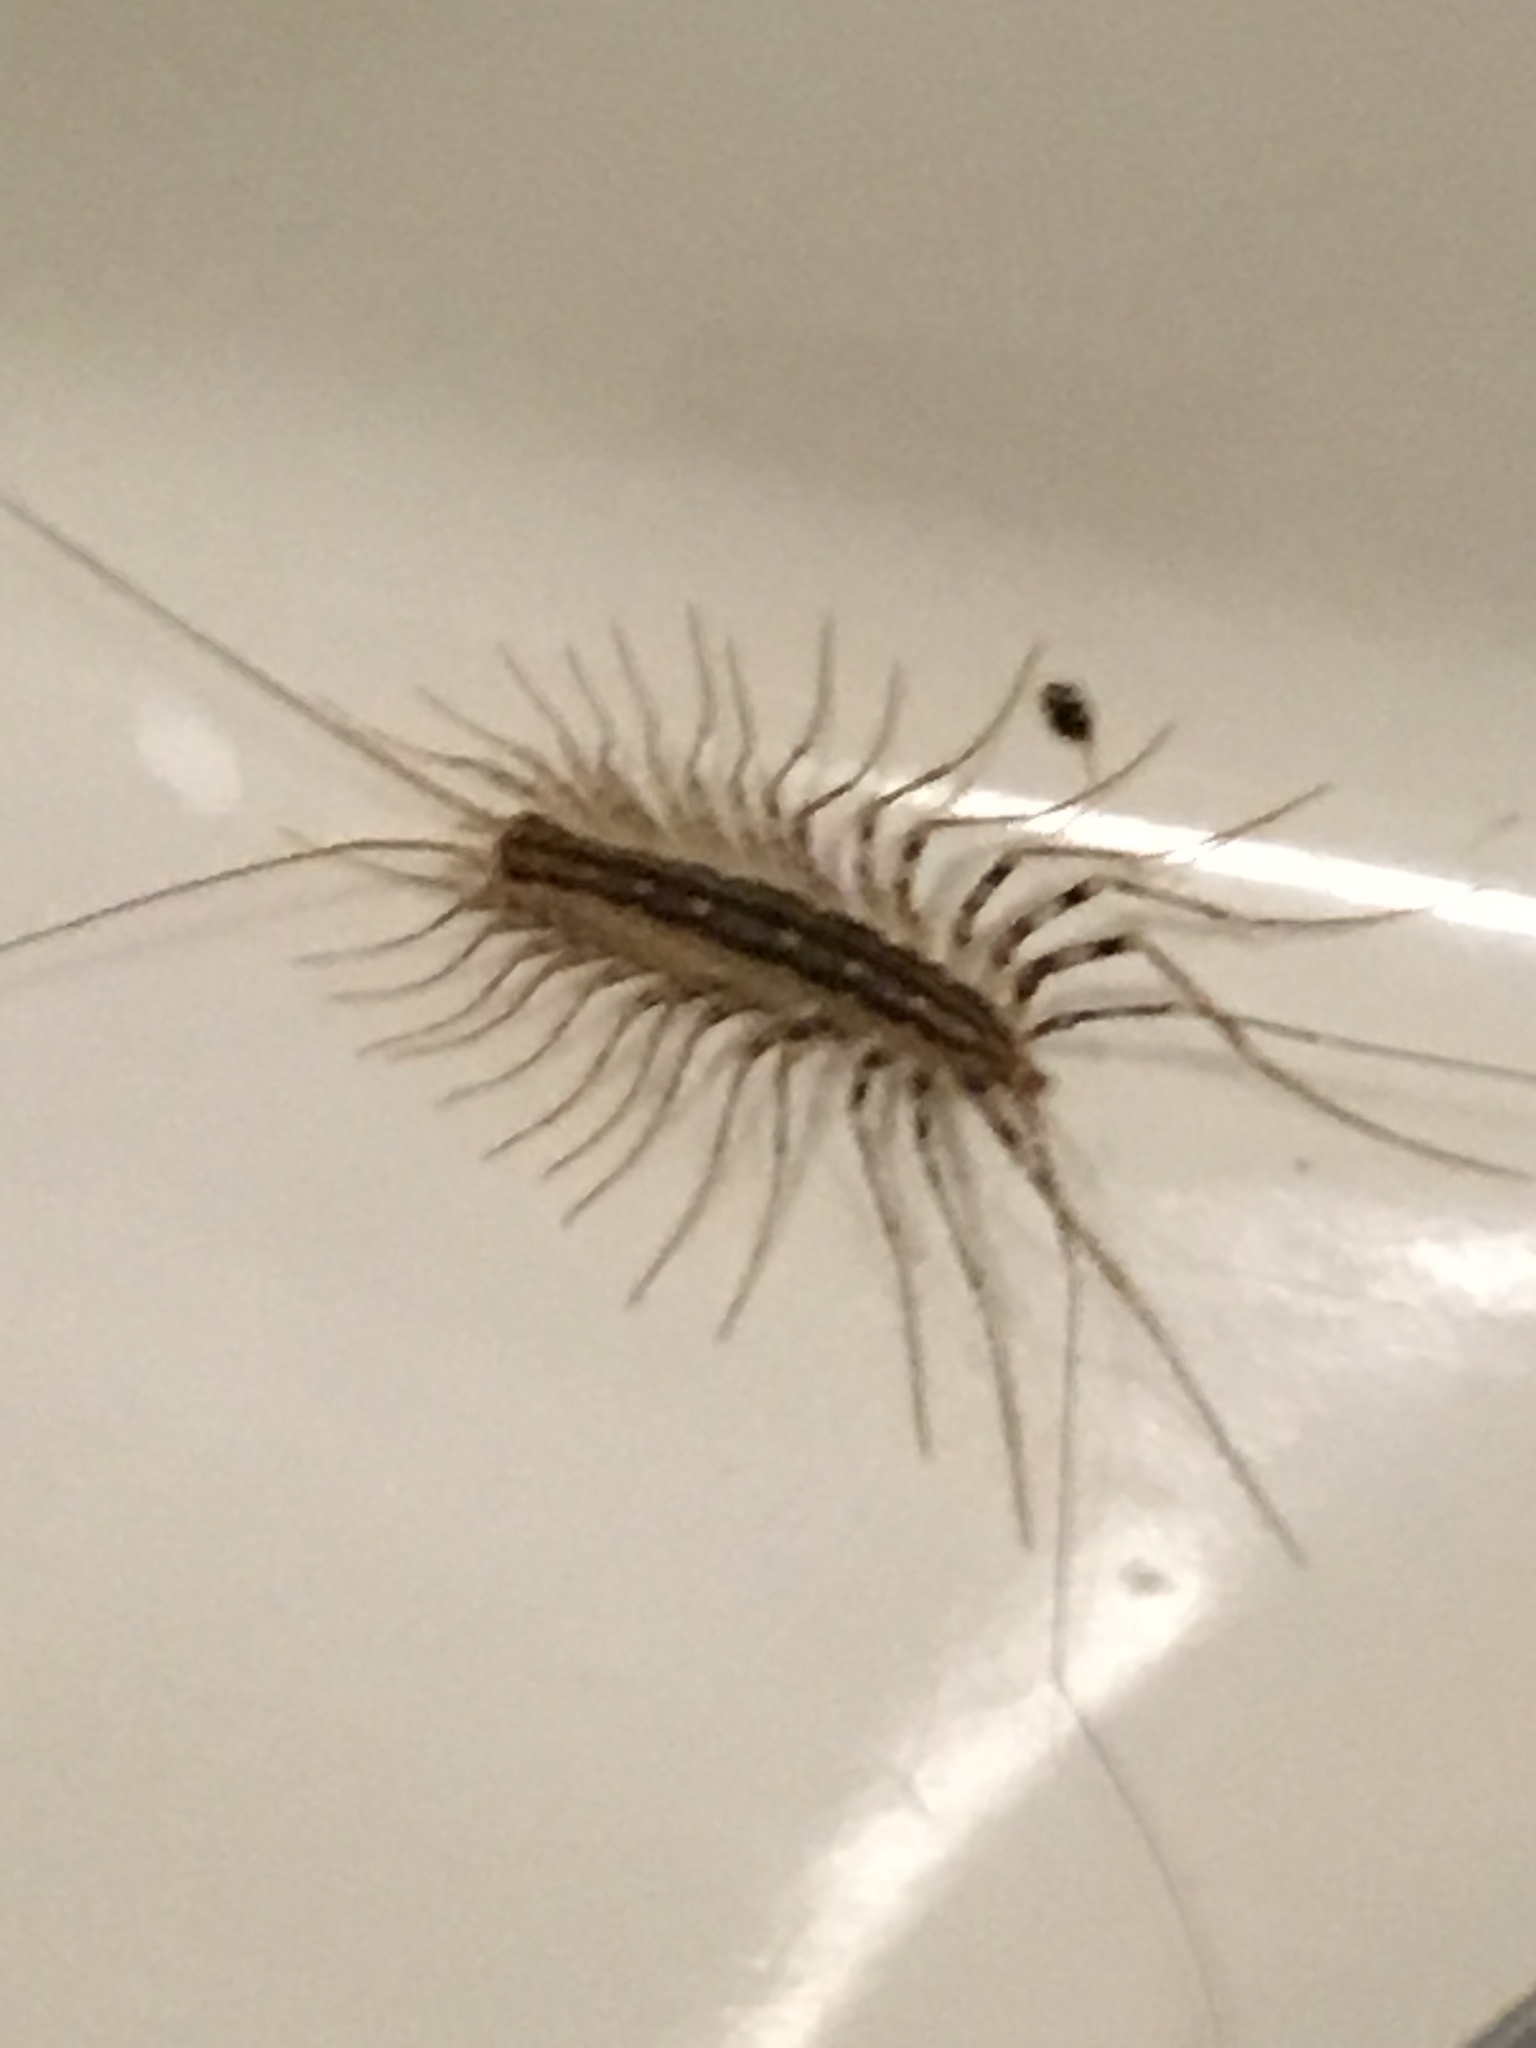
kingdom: Animalia
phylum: Arthropoda
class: Chilopoda
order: Scutigeromorpha
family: Scutigeridae
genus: Scutigera
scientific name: Scutigera coleoptrata
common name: House centipede
